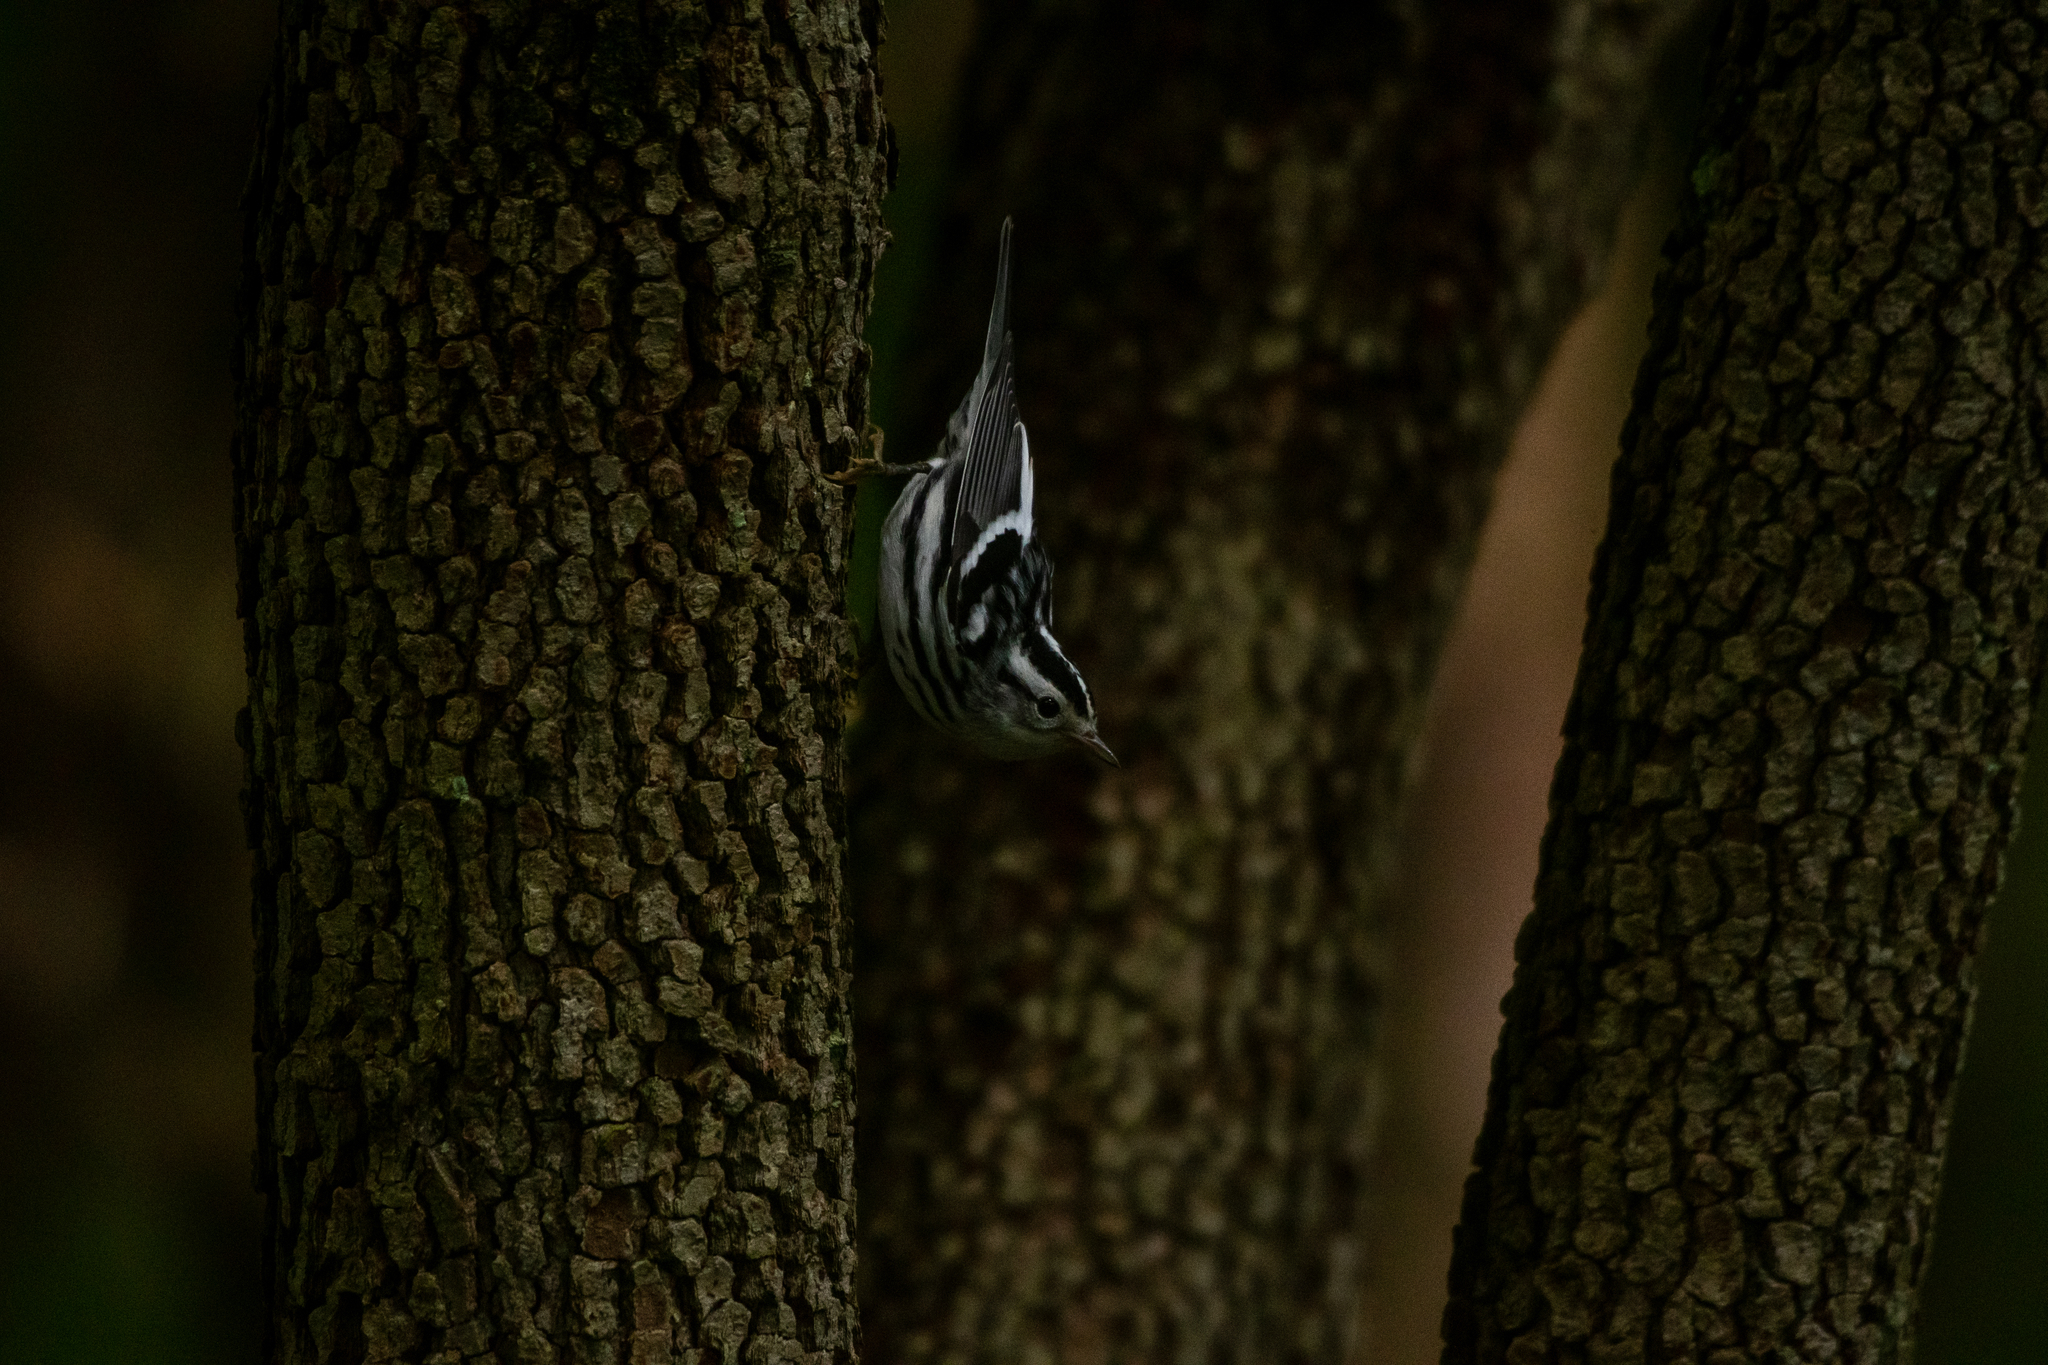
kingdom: Animalia
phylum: Chordata
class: Aves
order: Passeriformes
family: Parulidae
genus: Mniotilta
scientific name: Mniotilta varia
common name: Black-and-white warbler
